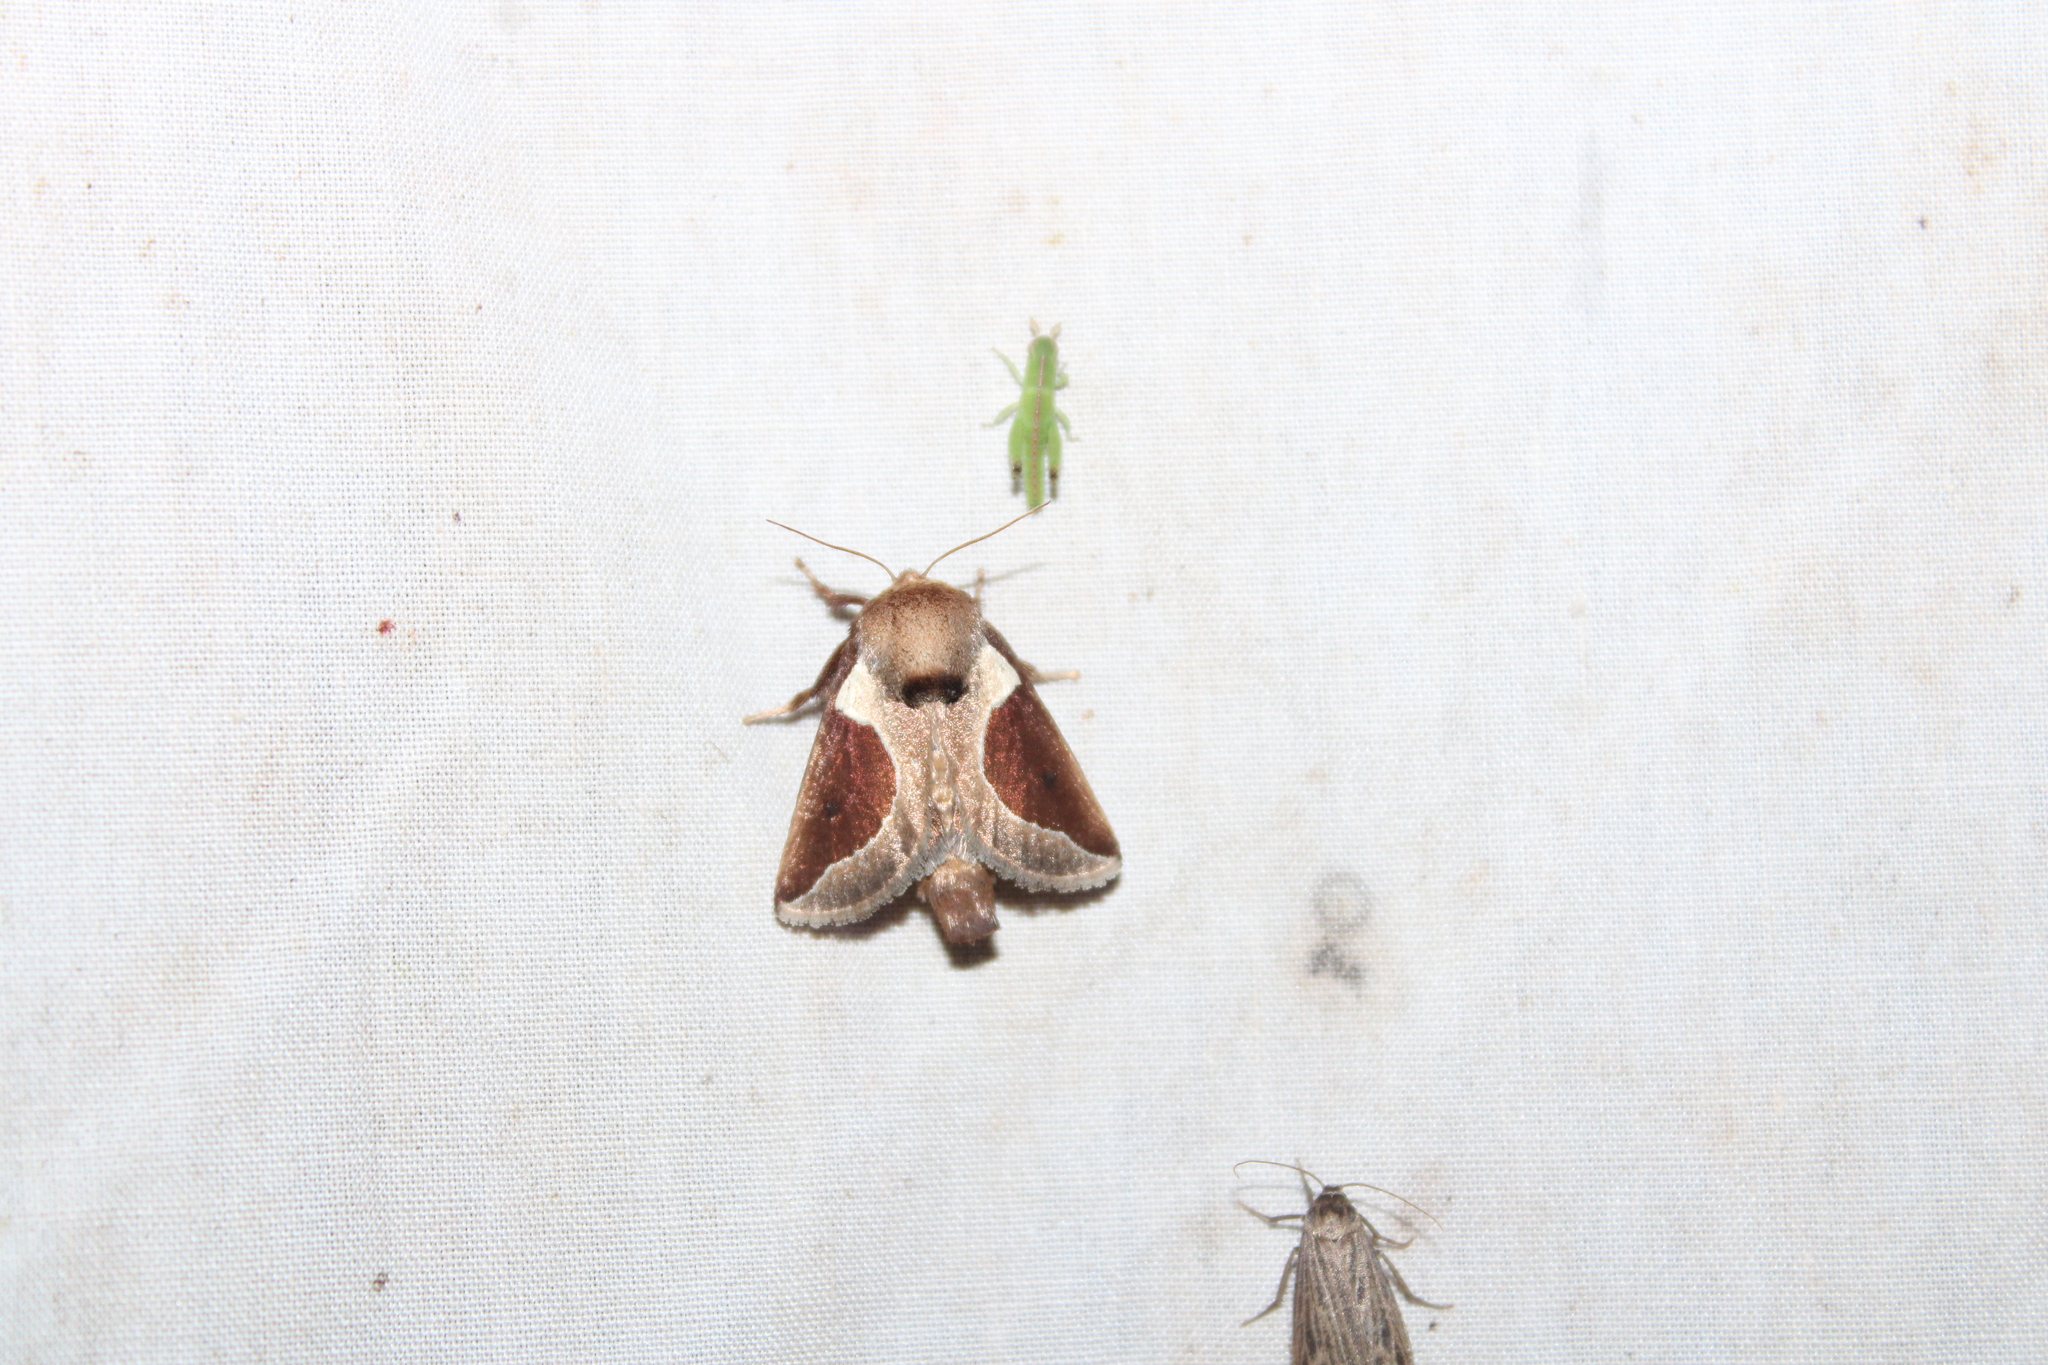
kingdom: Animalia
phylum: Arthropoda
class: Insecta
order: Lepidoptera
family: Limacodidae
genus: Prolimacodes
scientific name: Prolimacodes badia
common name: Skiff moth
